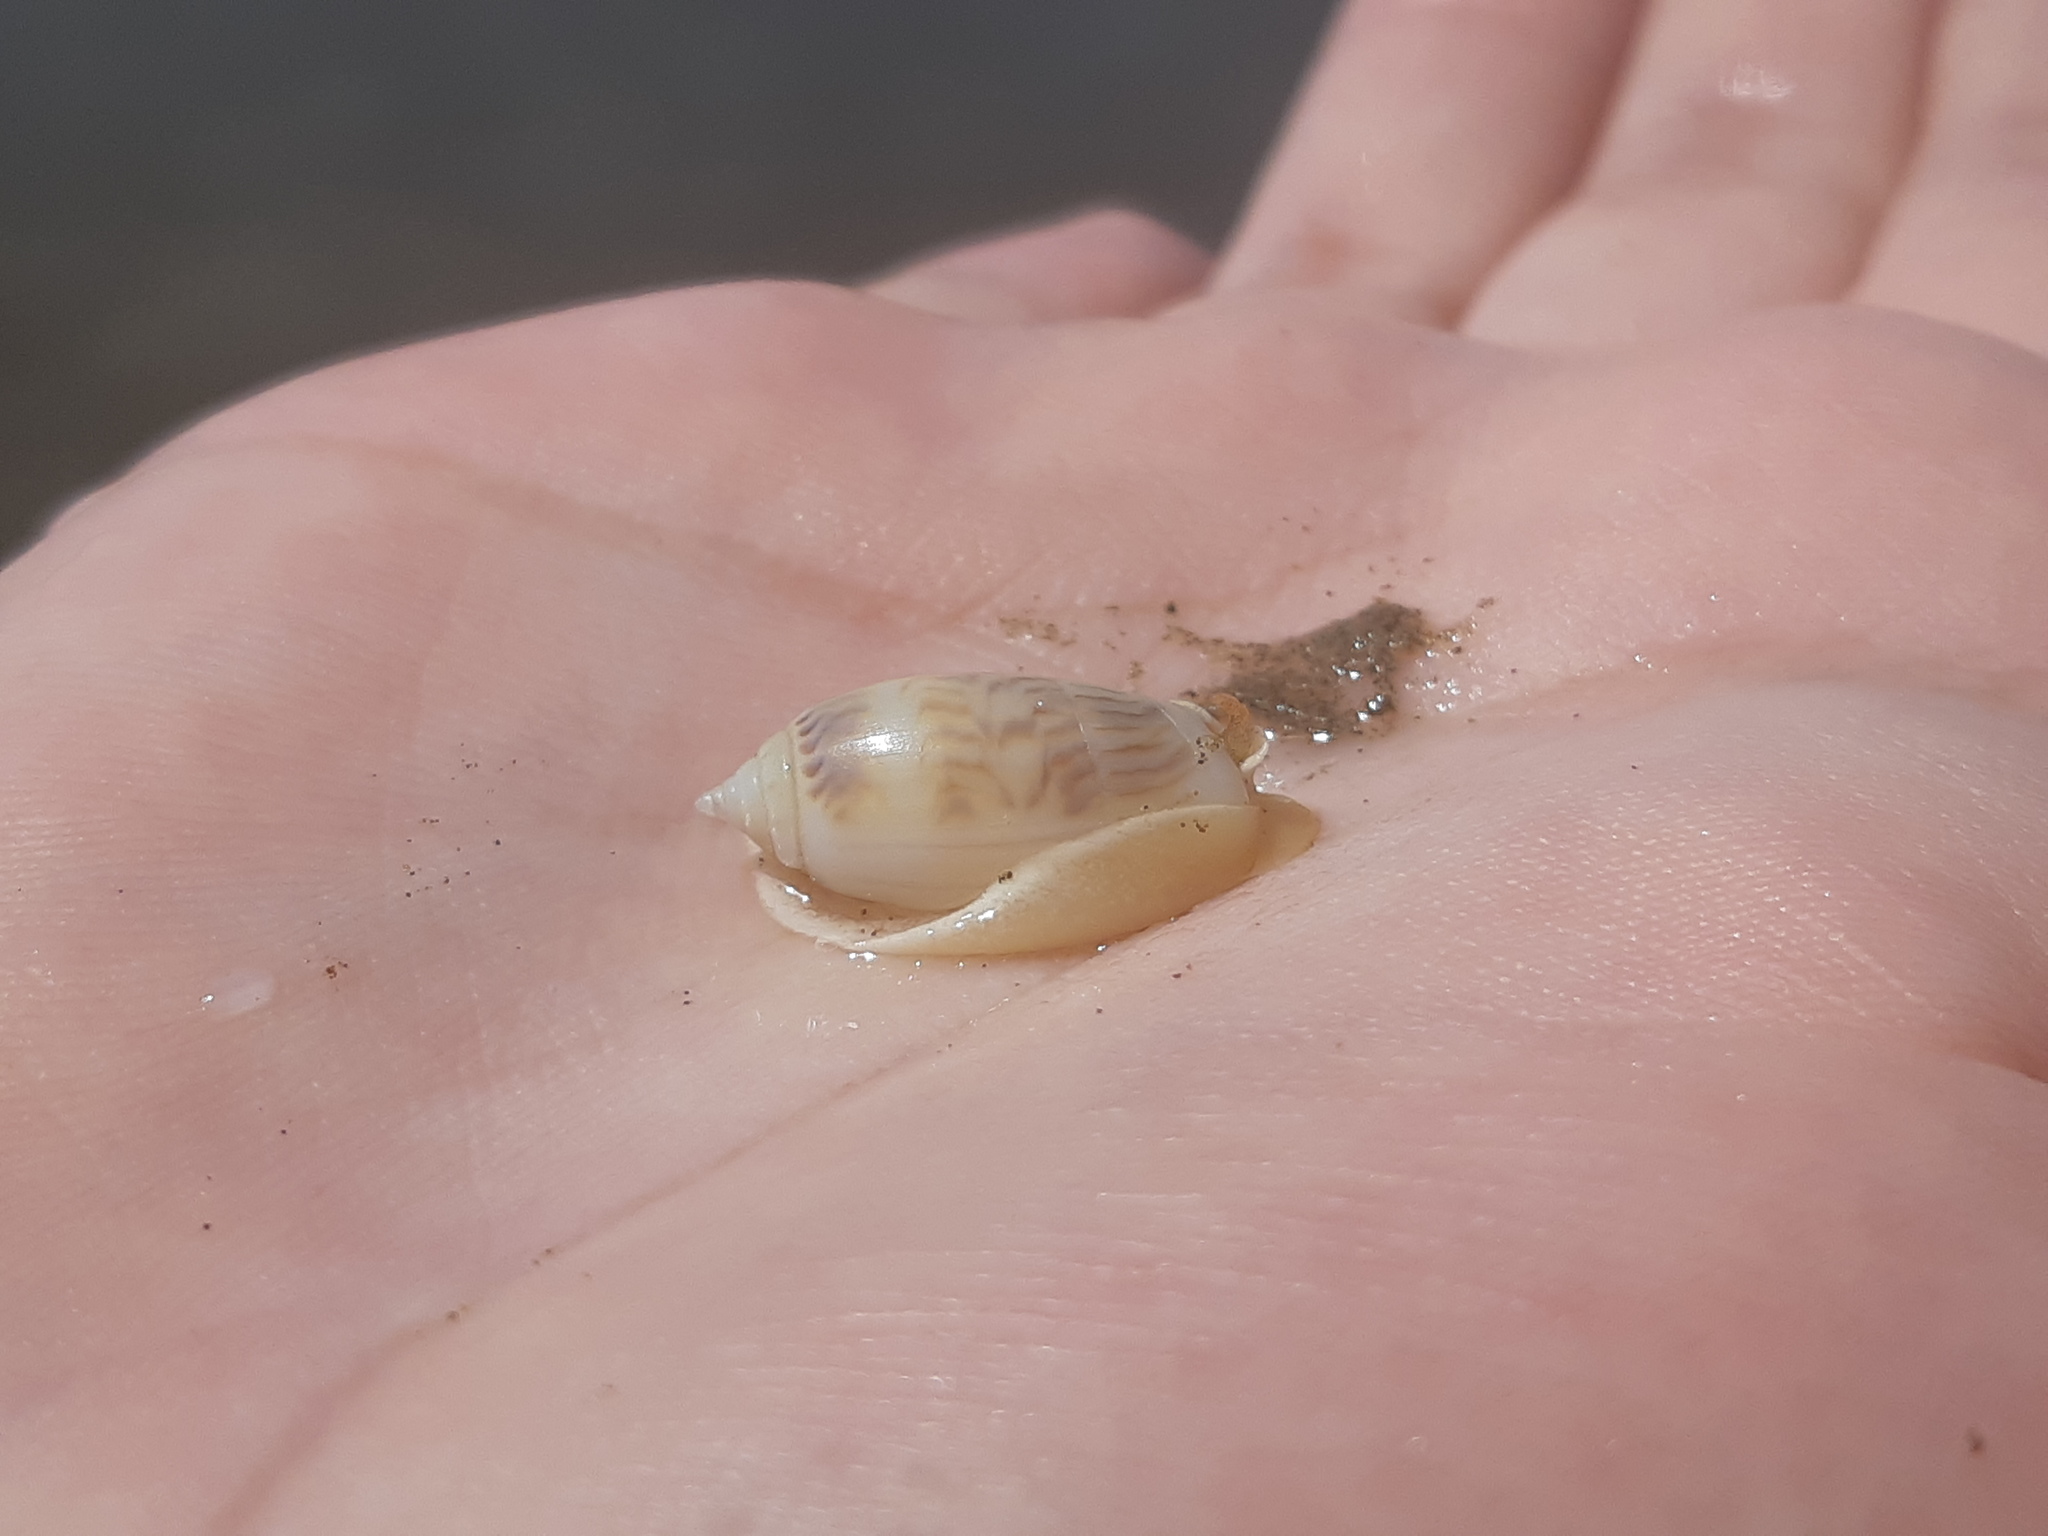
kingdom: Animalia
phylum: Mollusca
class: Gastropoda
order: Neogastropoda
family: Olividae
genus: Oliva
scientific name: Oliva undatella
